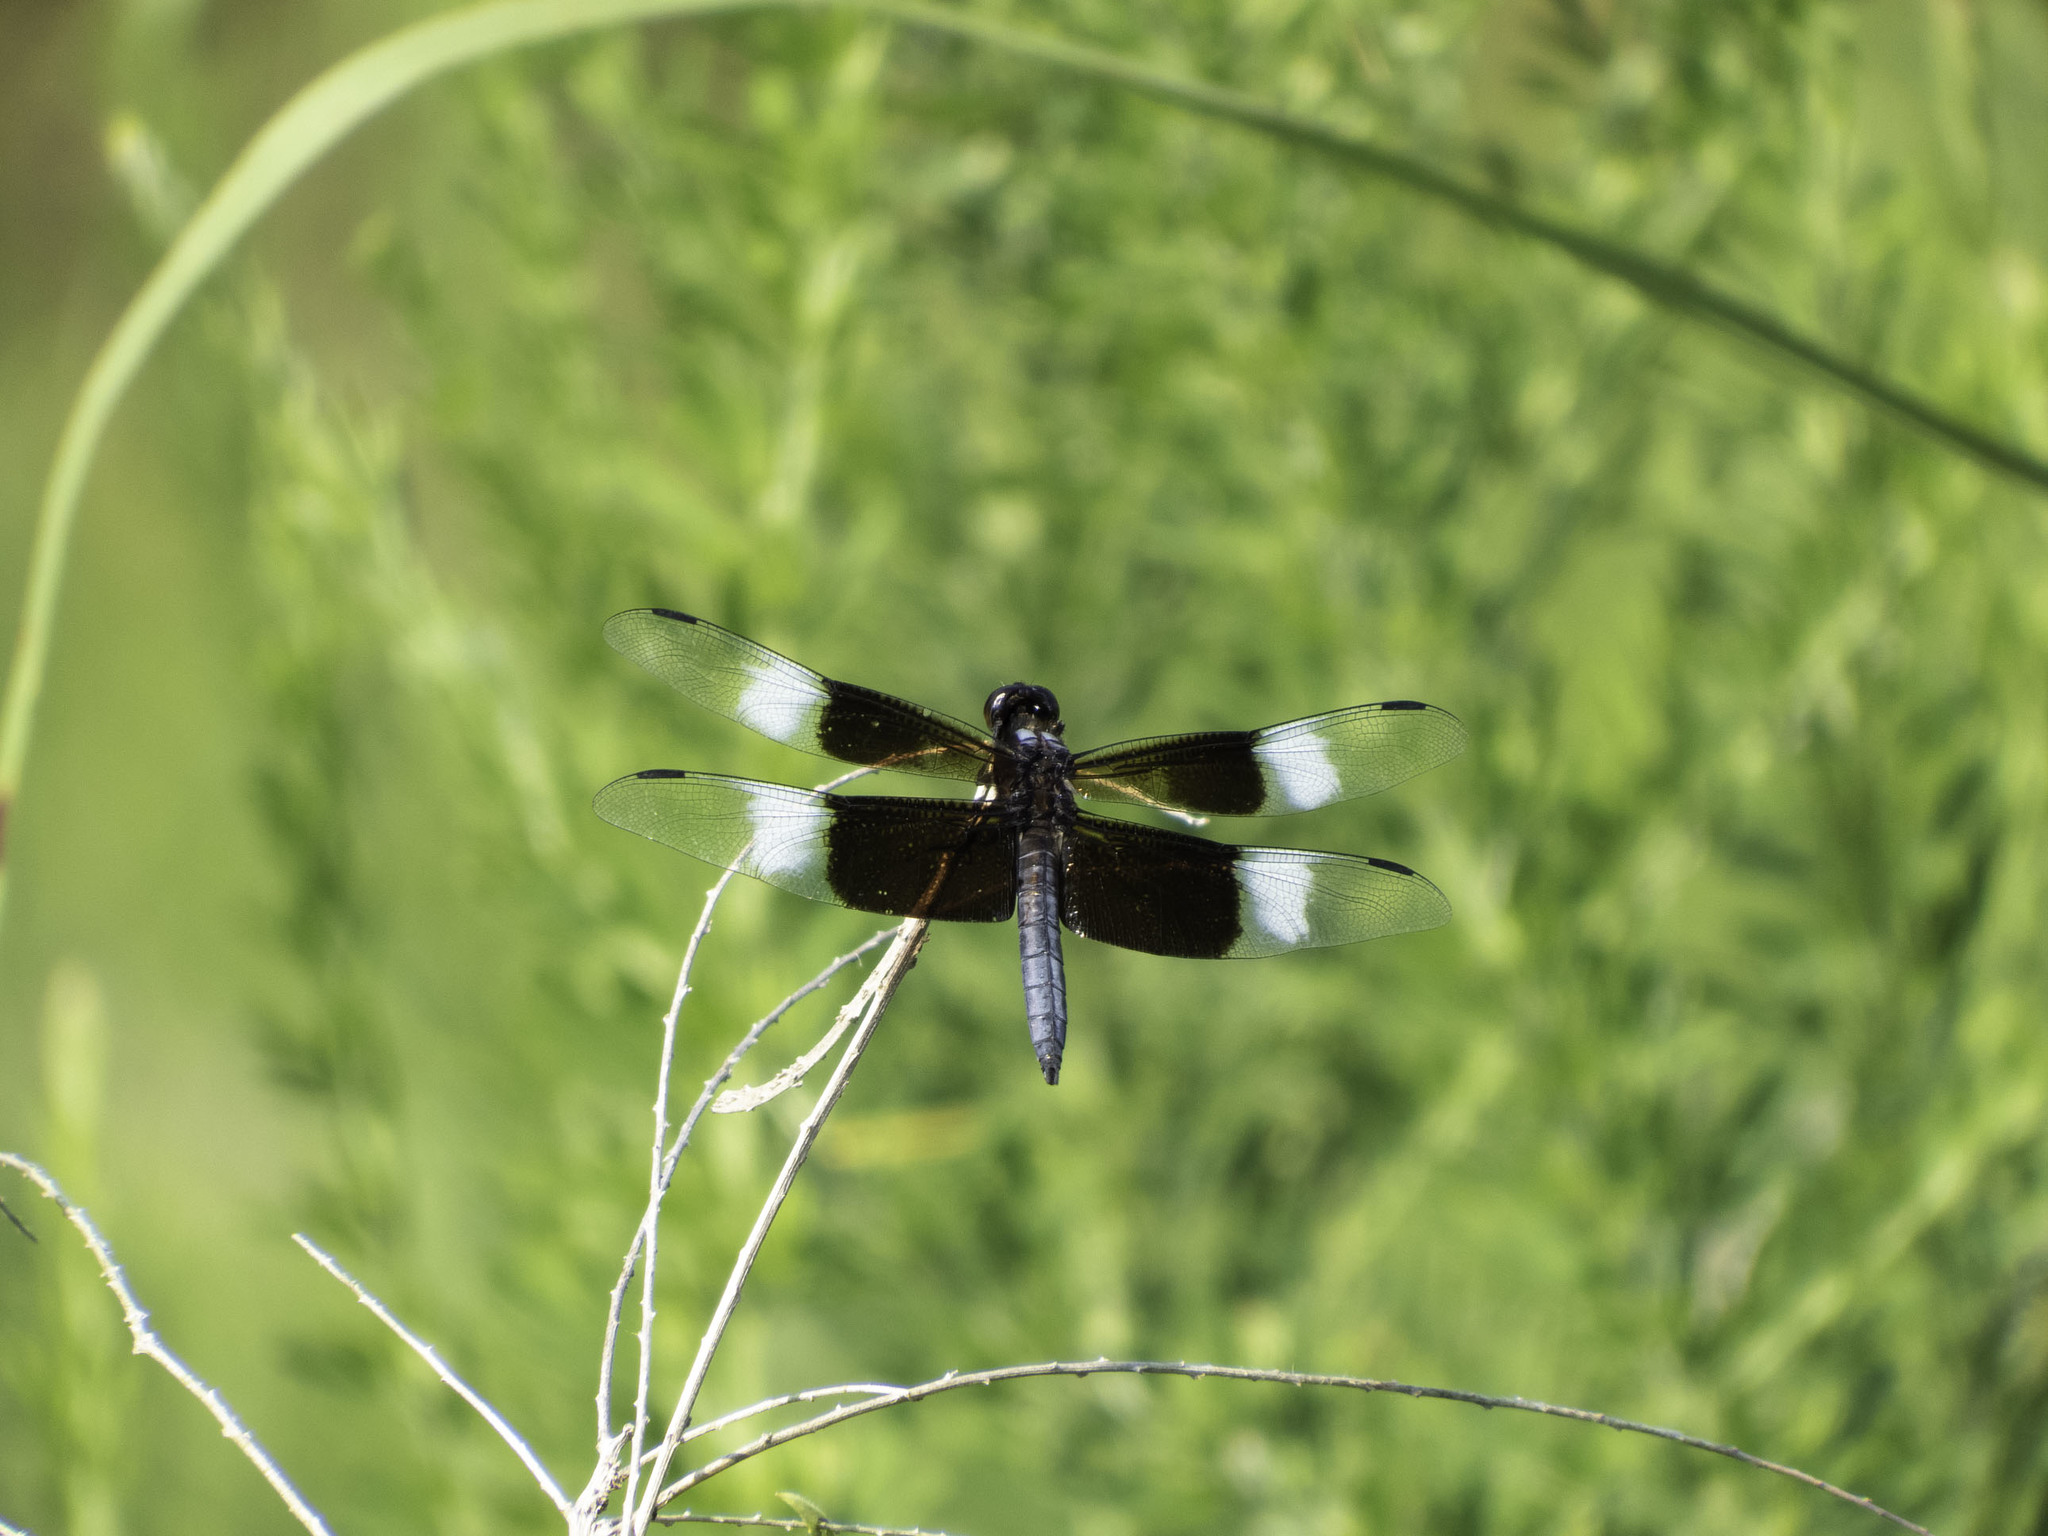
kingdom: Animalia
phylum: Arthropoda
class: Insecta
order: Odonata
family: Libellulidae
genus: Libellula
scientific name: Libellula luctuosa
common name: Widow skimmer
